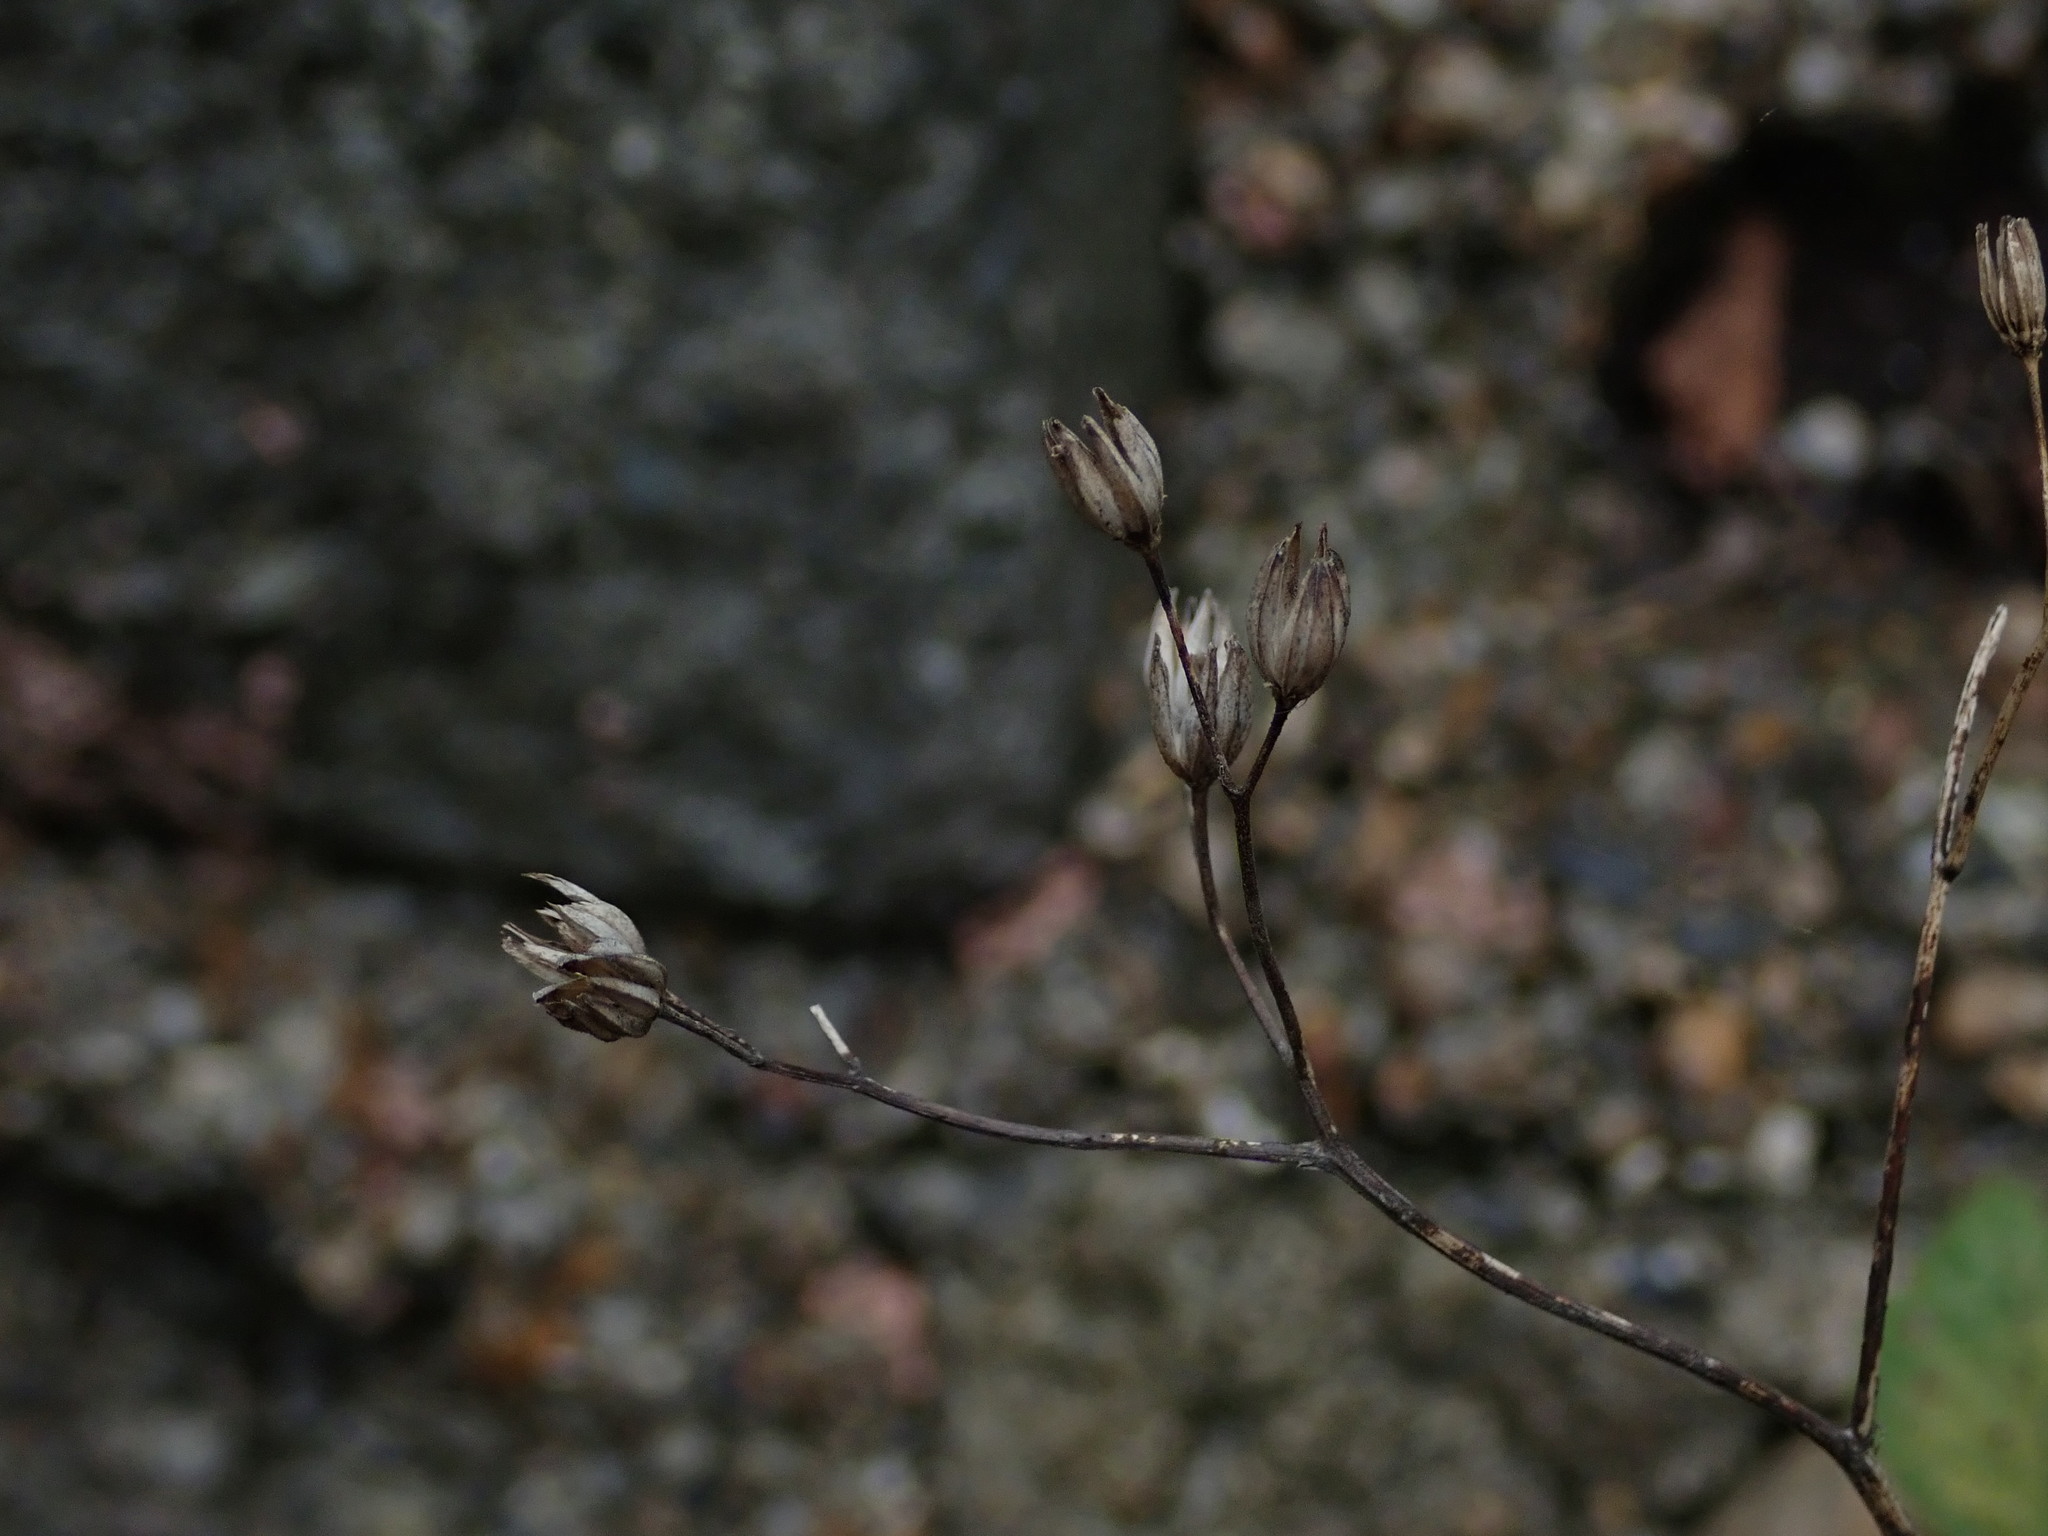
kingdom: Plantae
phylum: Tracheophyta
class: Magnoliopsida
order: Asterales
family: Asteraceae
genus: Lapsana
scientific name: Lapsana communis
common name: Nipplewort
